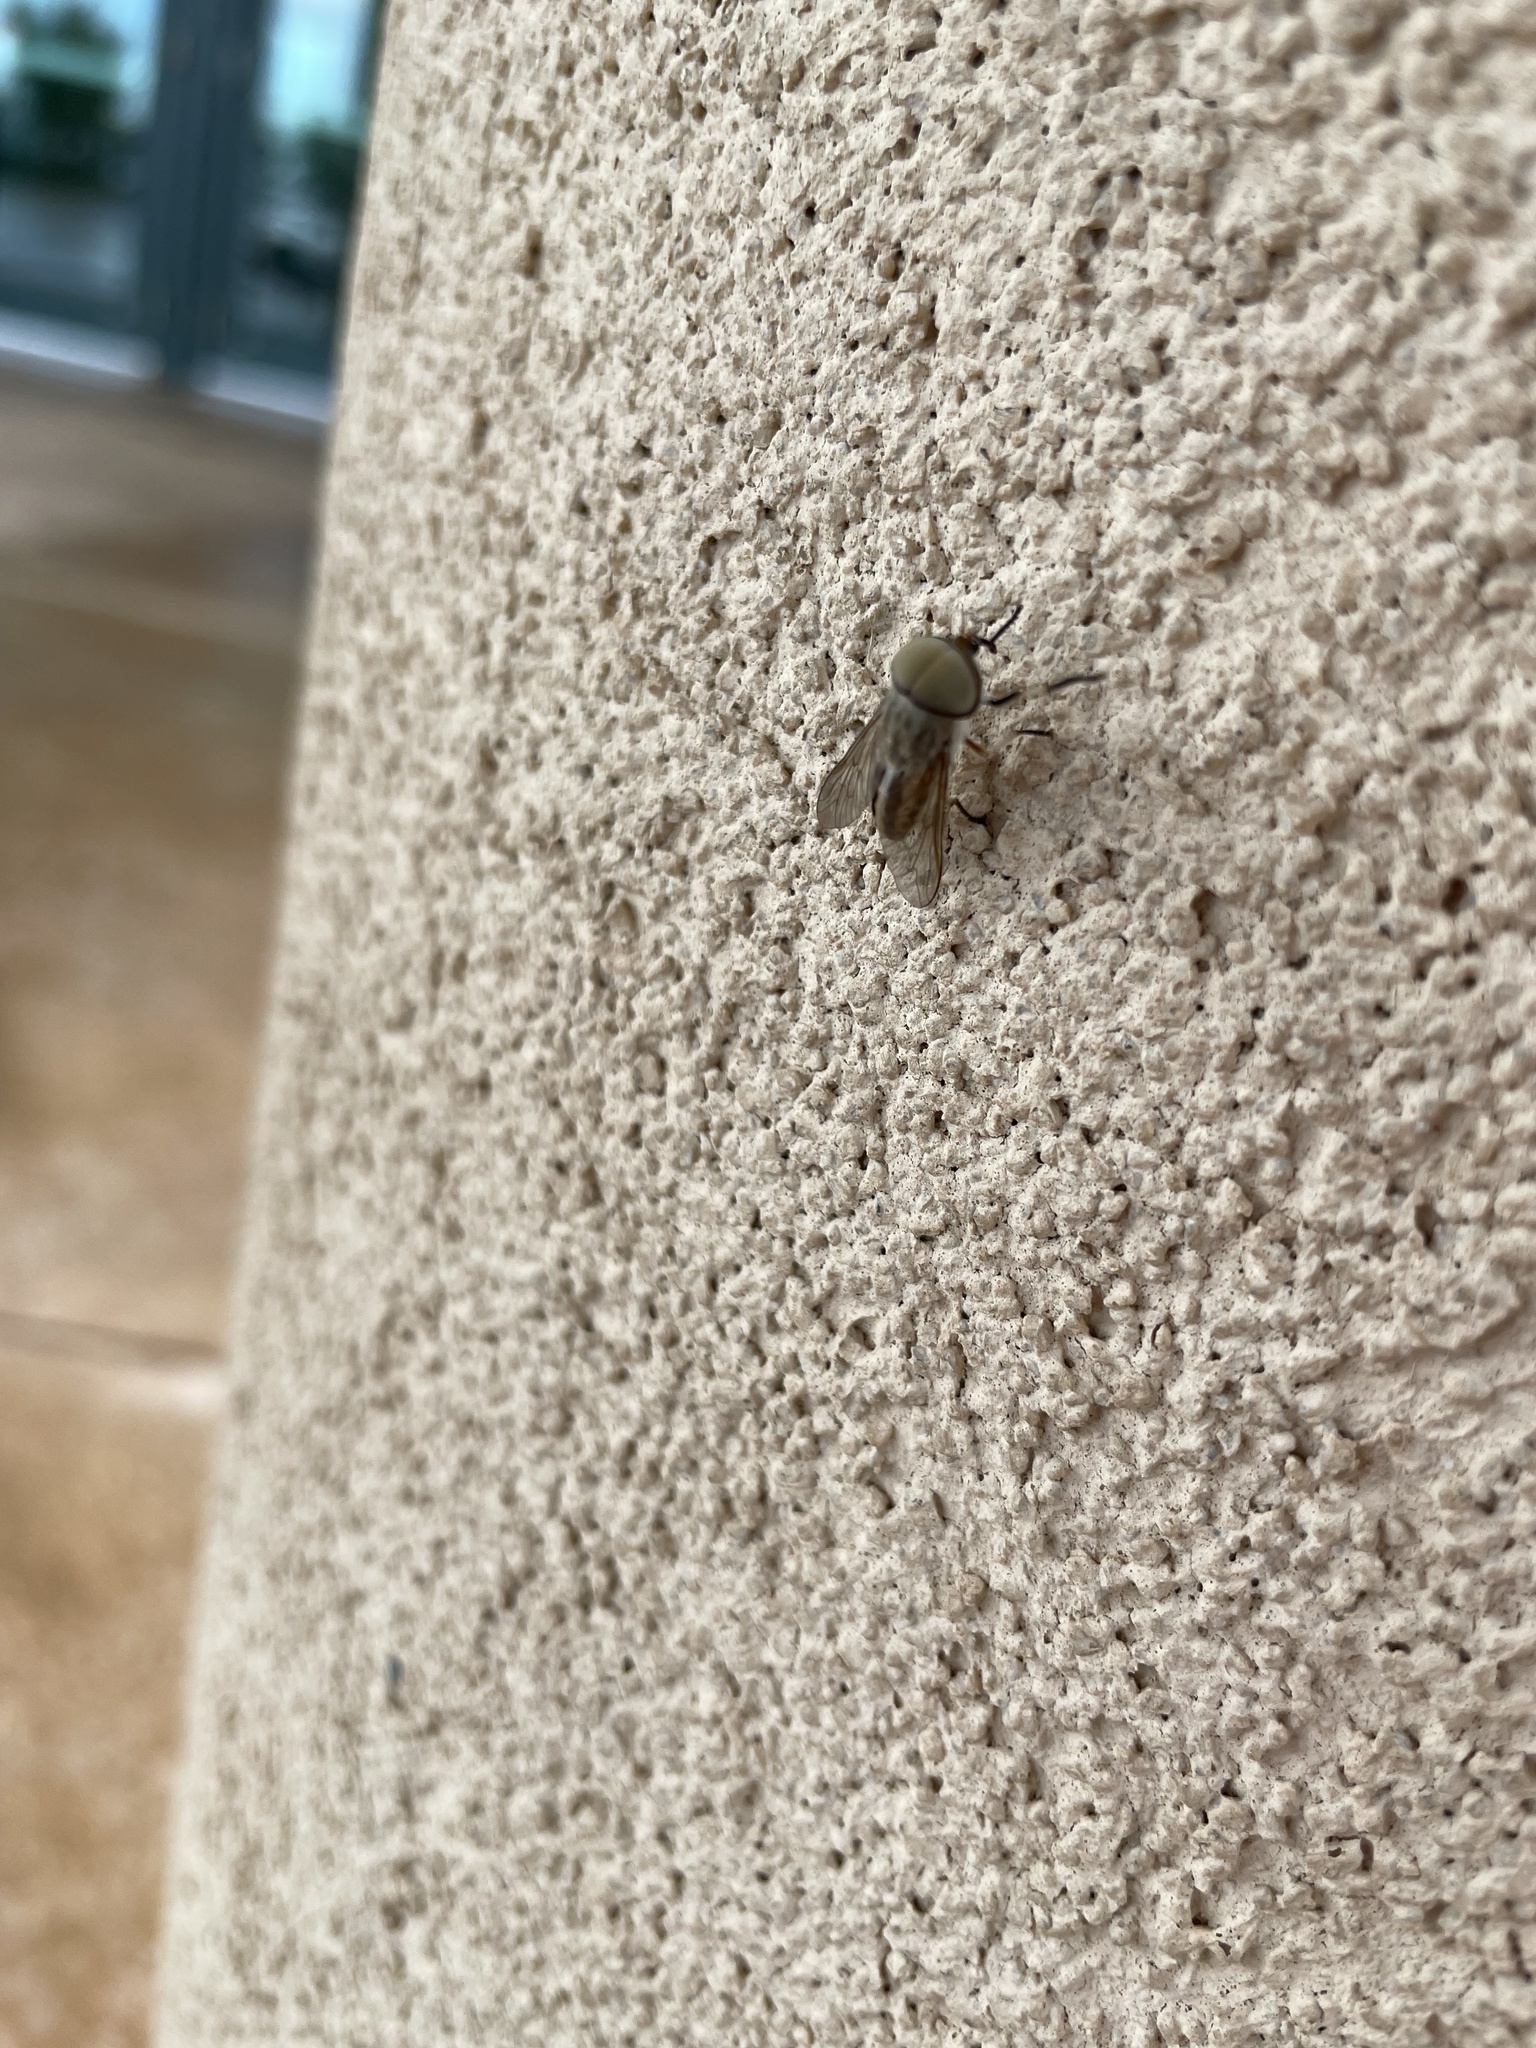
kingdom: Animalia
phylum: Arthropoda
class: Insecta
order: Diptera
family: Tabanidae
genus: Tabanus
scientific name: Tabanus lineola
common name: Striped horse fly
